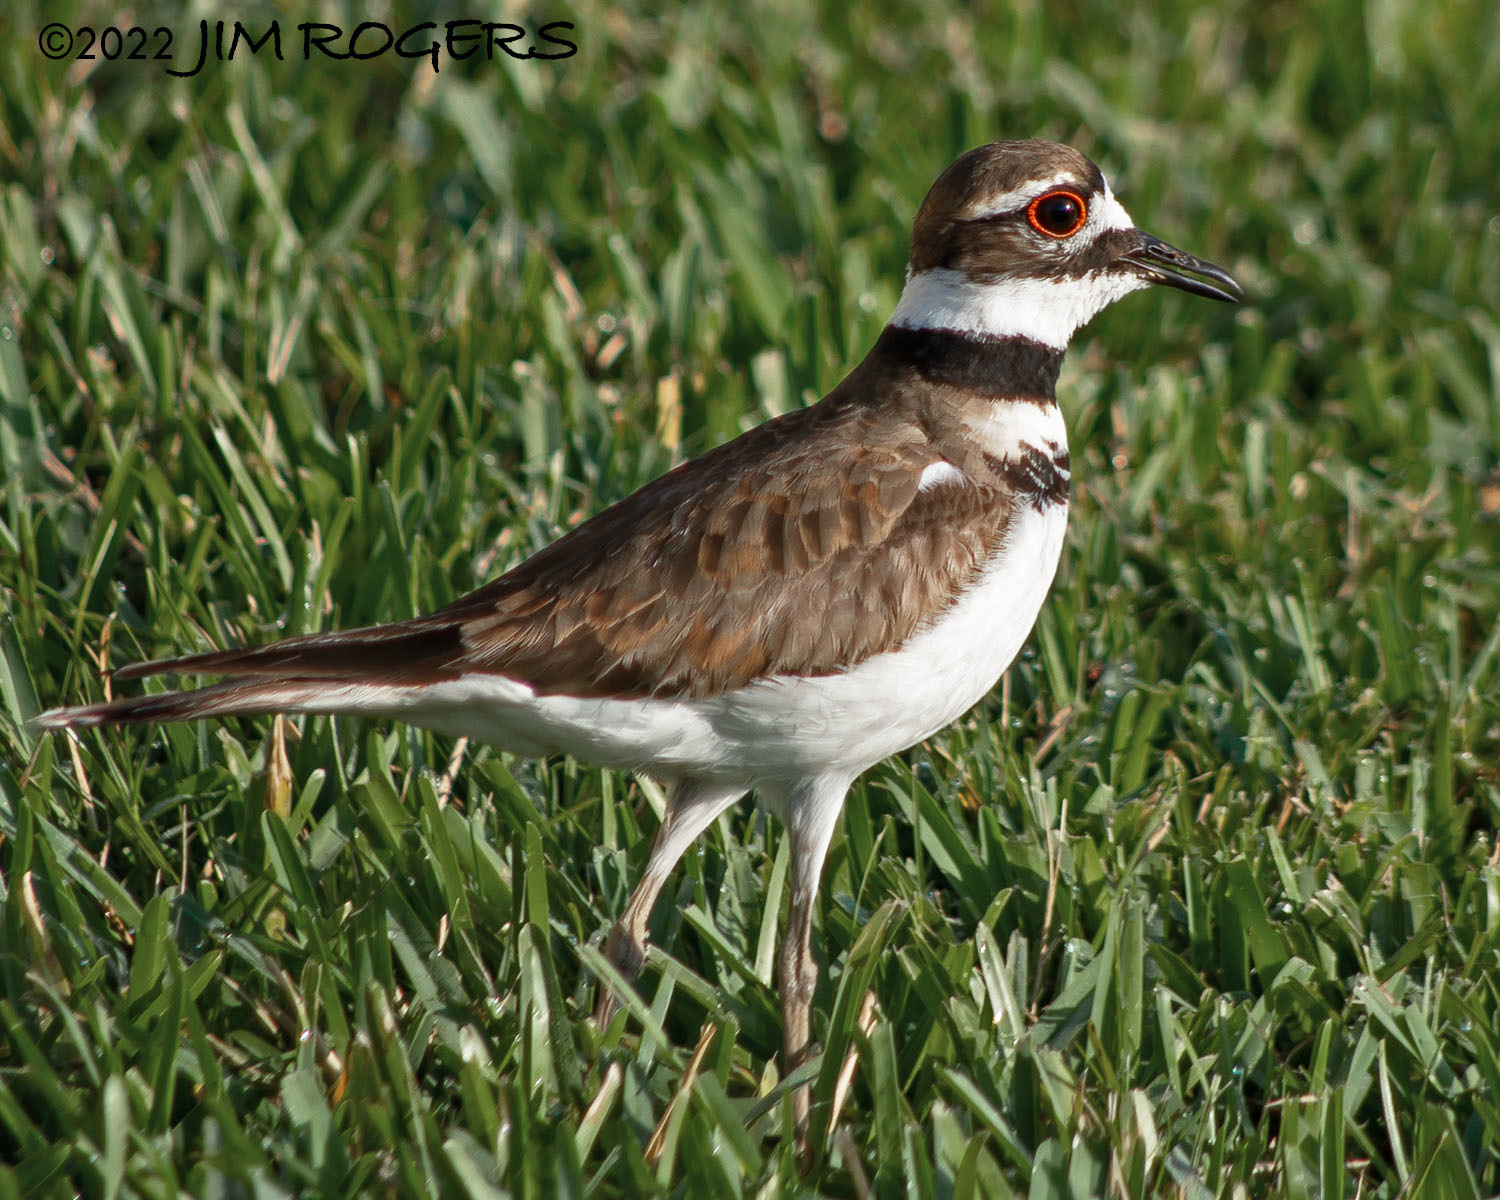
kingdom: Animalia
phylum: Chordata
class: Aves
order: Charadriiformes
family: Charadriidae
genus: Charadrius
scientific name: Charadrius vociferus
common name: Killdeer
